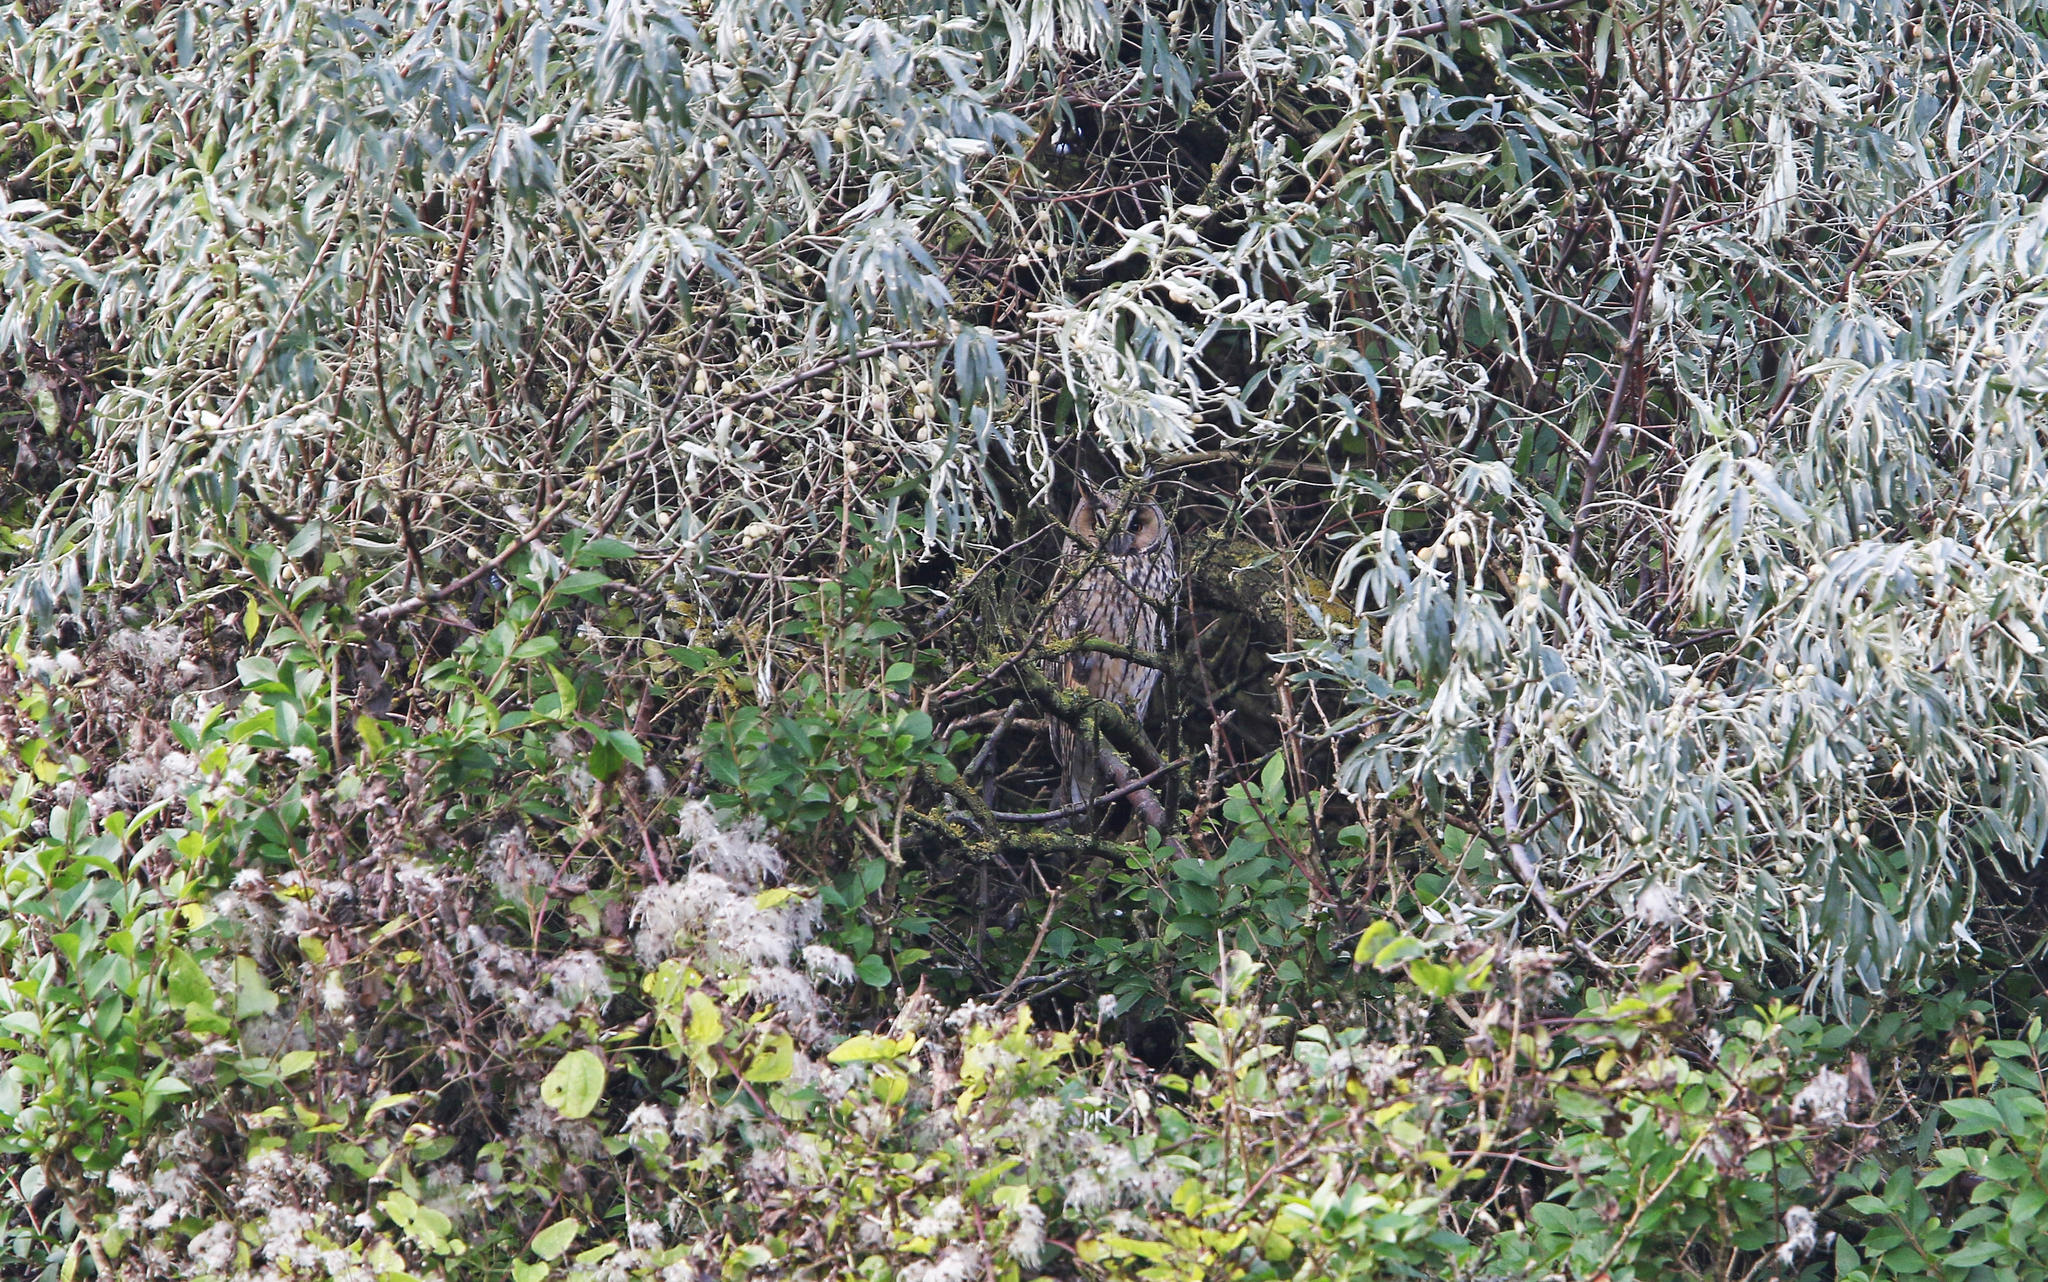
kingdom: Animalia
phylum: Chordata
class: Aves
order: Strigiformes
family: Strigidae
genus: Asio
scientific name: Asio otus
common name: Long-eared owl
